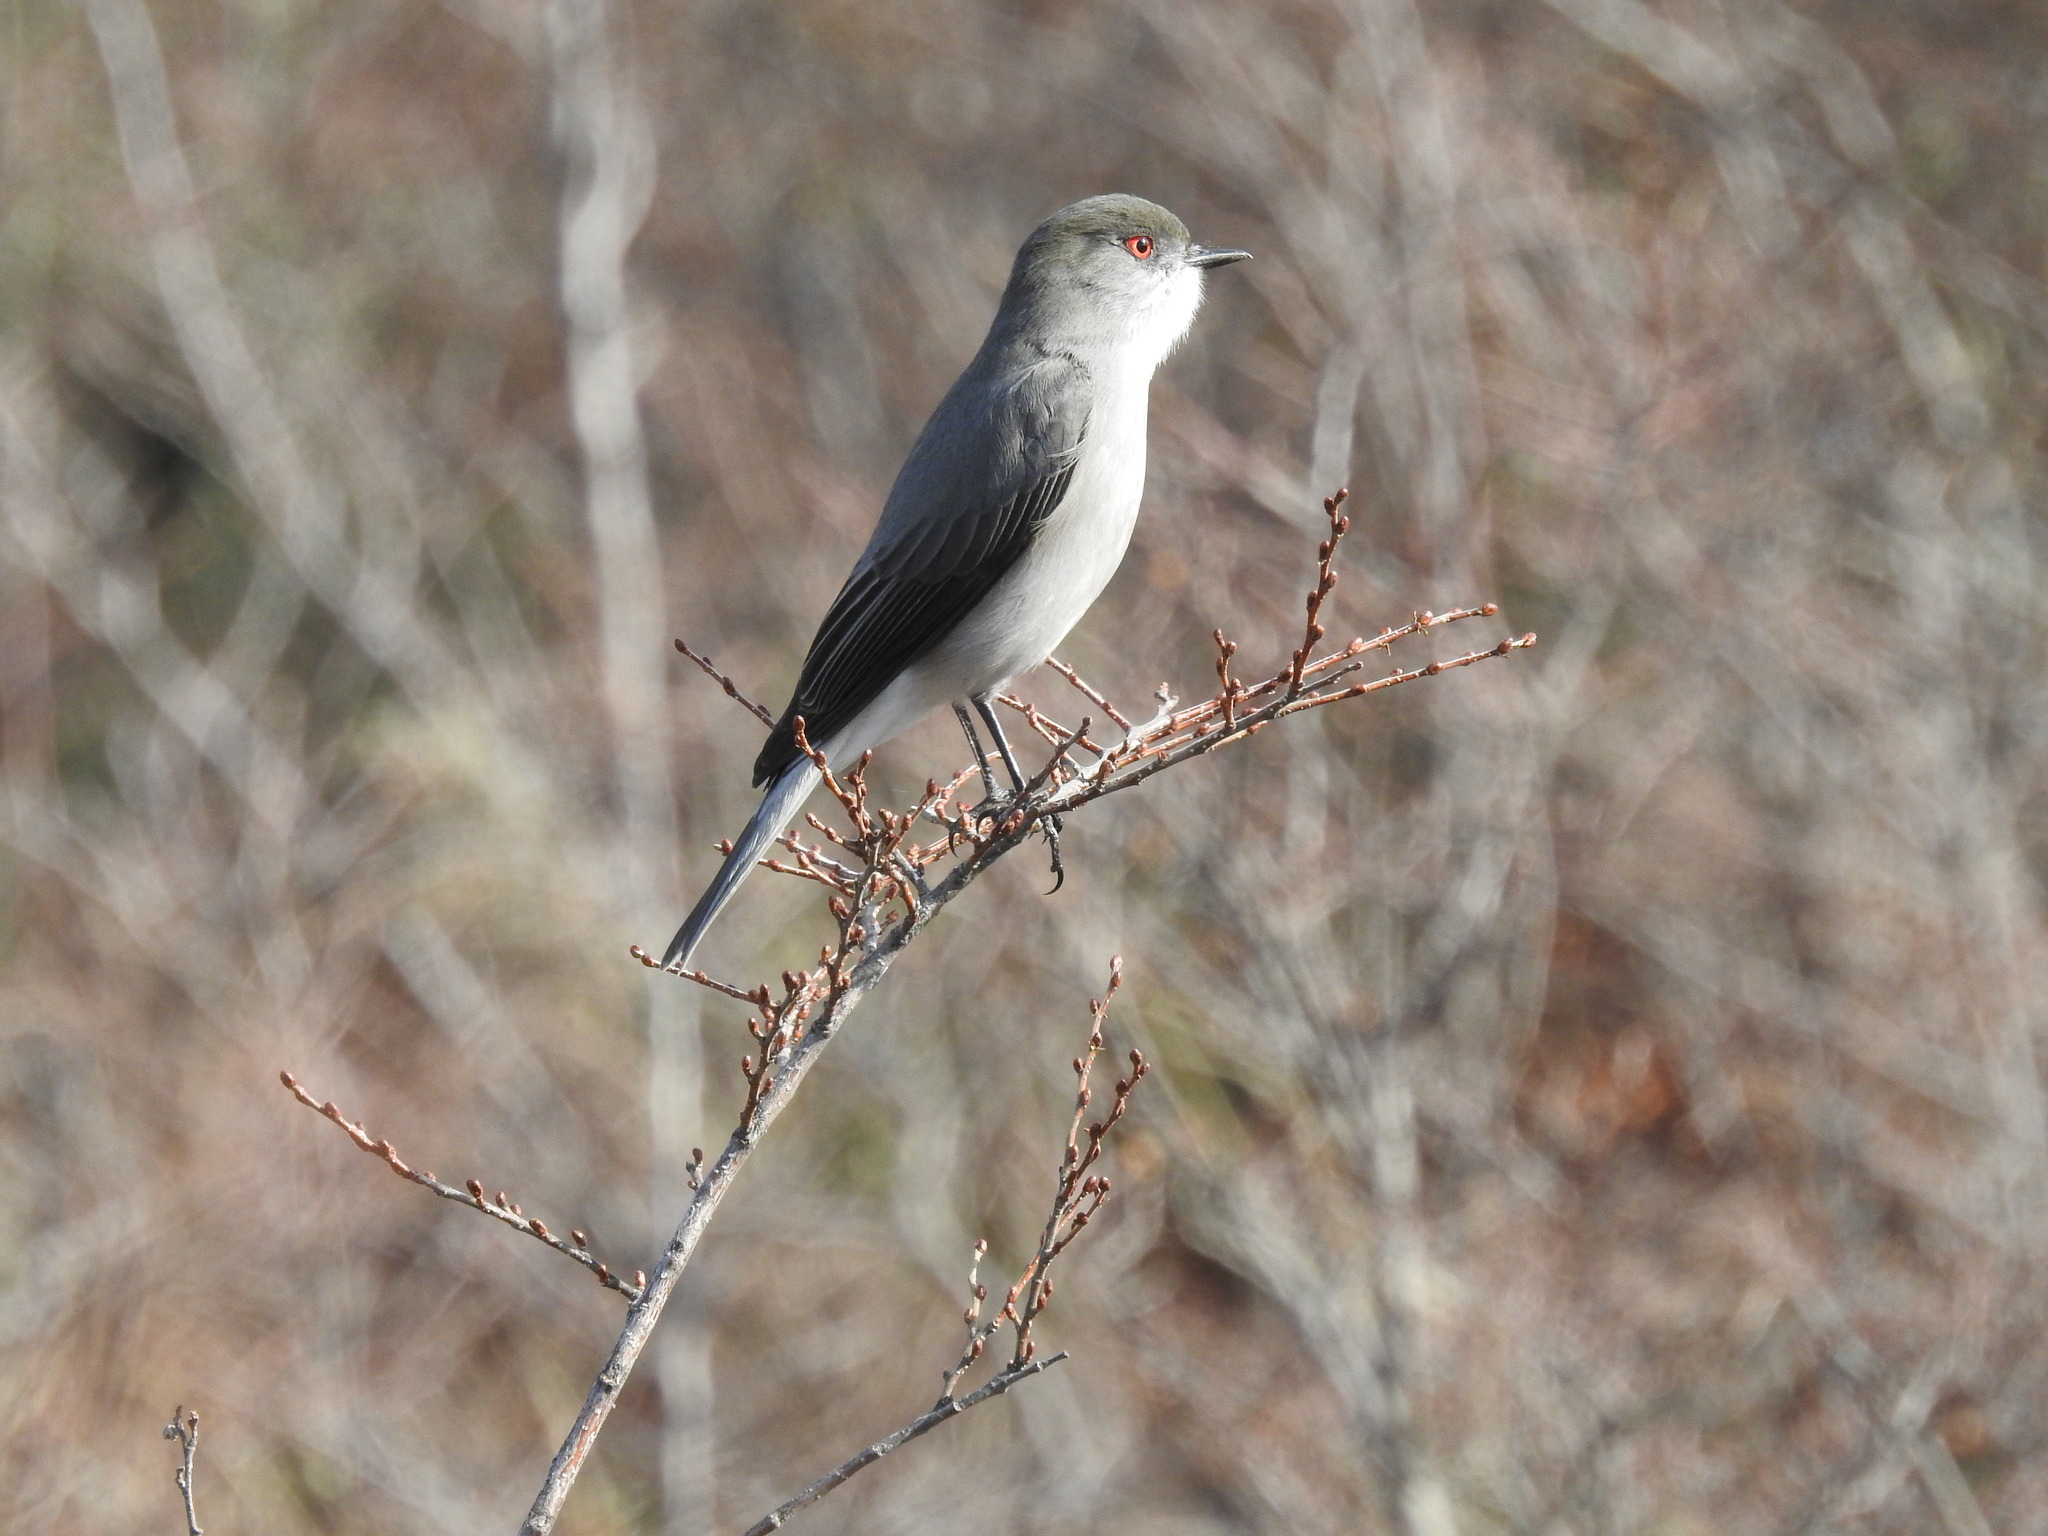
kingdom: Animalia
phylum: Chordata
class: Aves
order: Passeriformes
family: Tyrannidae
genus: Xolmis
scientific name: Xolmis pyrope
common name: Fire-eyed diucon
